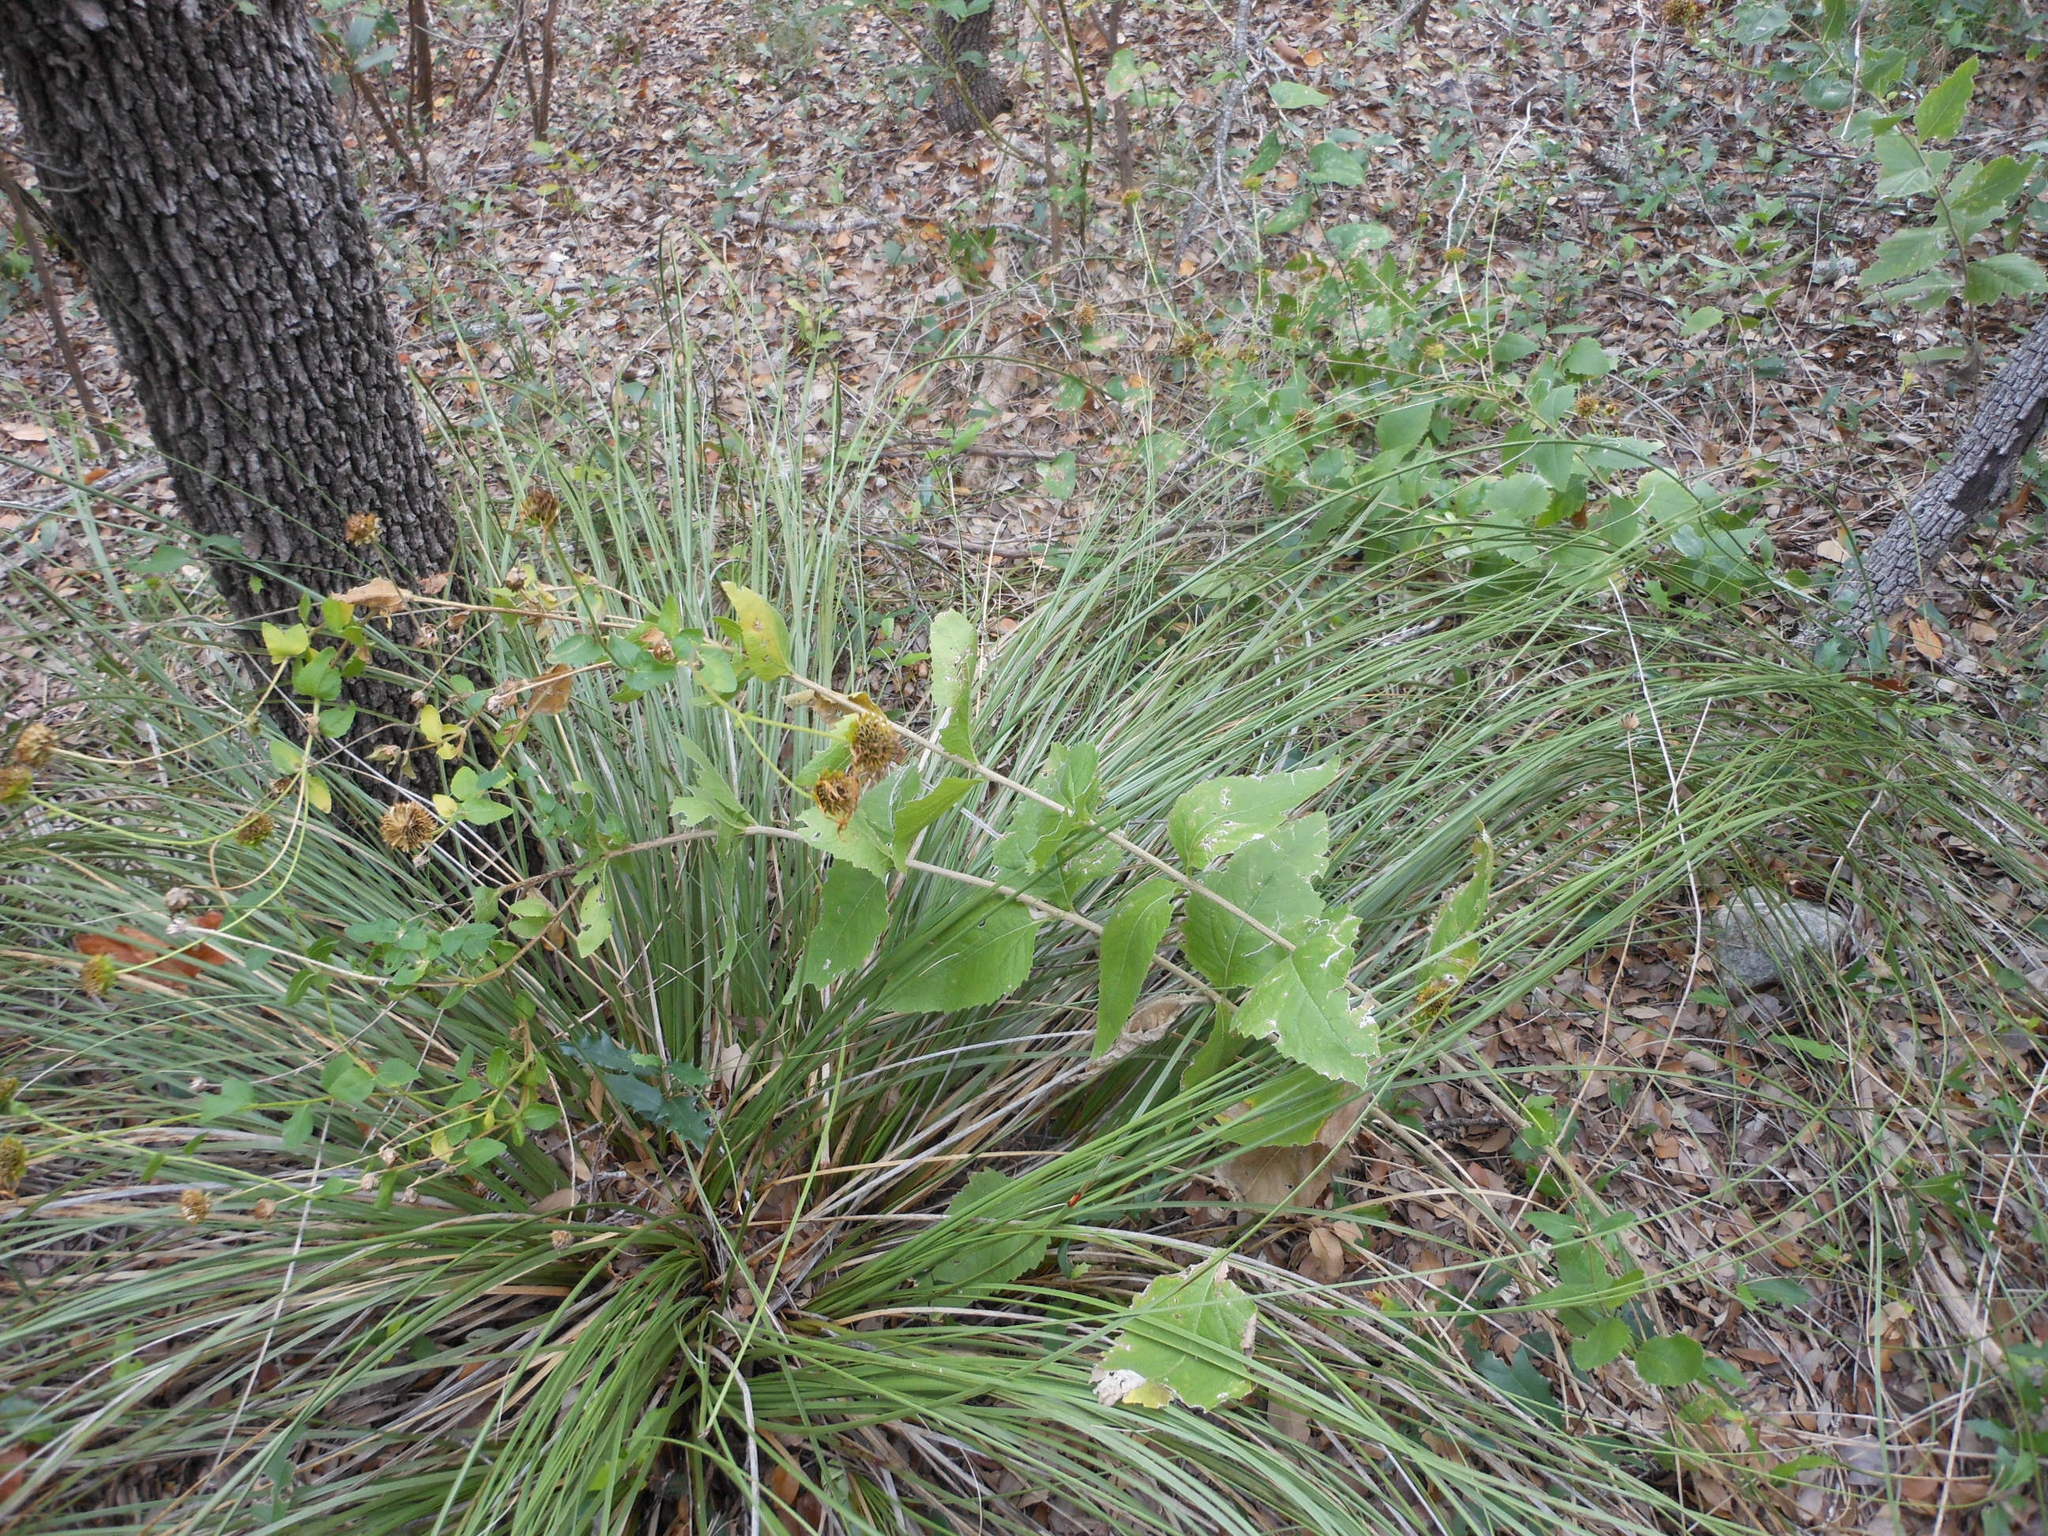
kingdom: Plantae
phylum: Tracheophyta
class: Magnoliopsida
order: Asterales
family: Asteraceae
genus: Verbesina
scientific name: Verbesina lindheimeri
